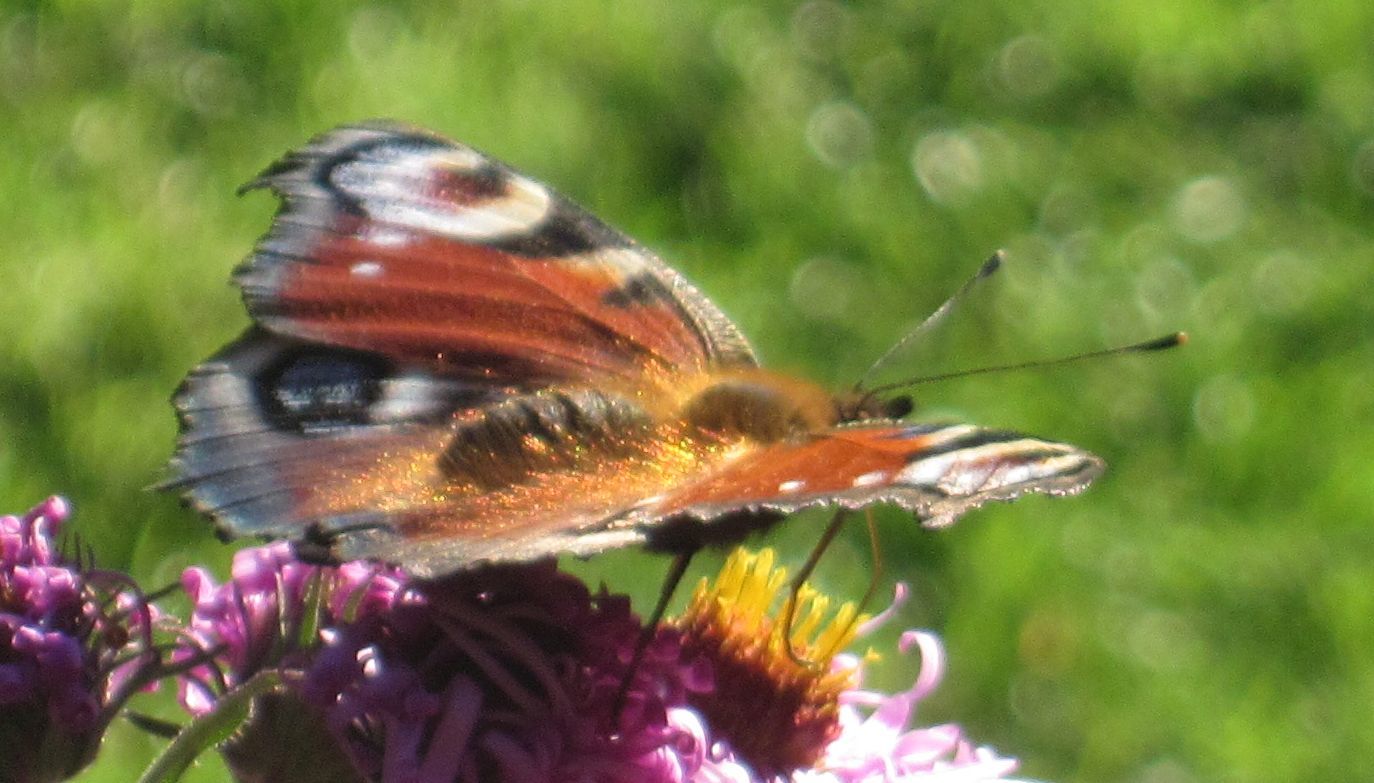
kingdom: Animalia
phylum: Arthropoda
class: Insecta
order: Lepidoptera
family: Nymphalidae
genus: Aglais
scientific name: Aglais io
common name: Peacock
